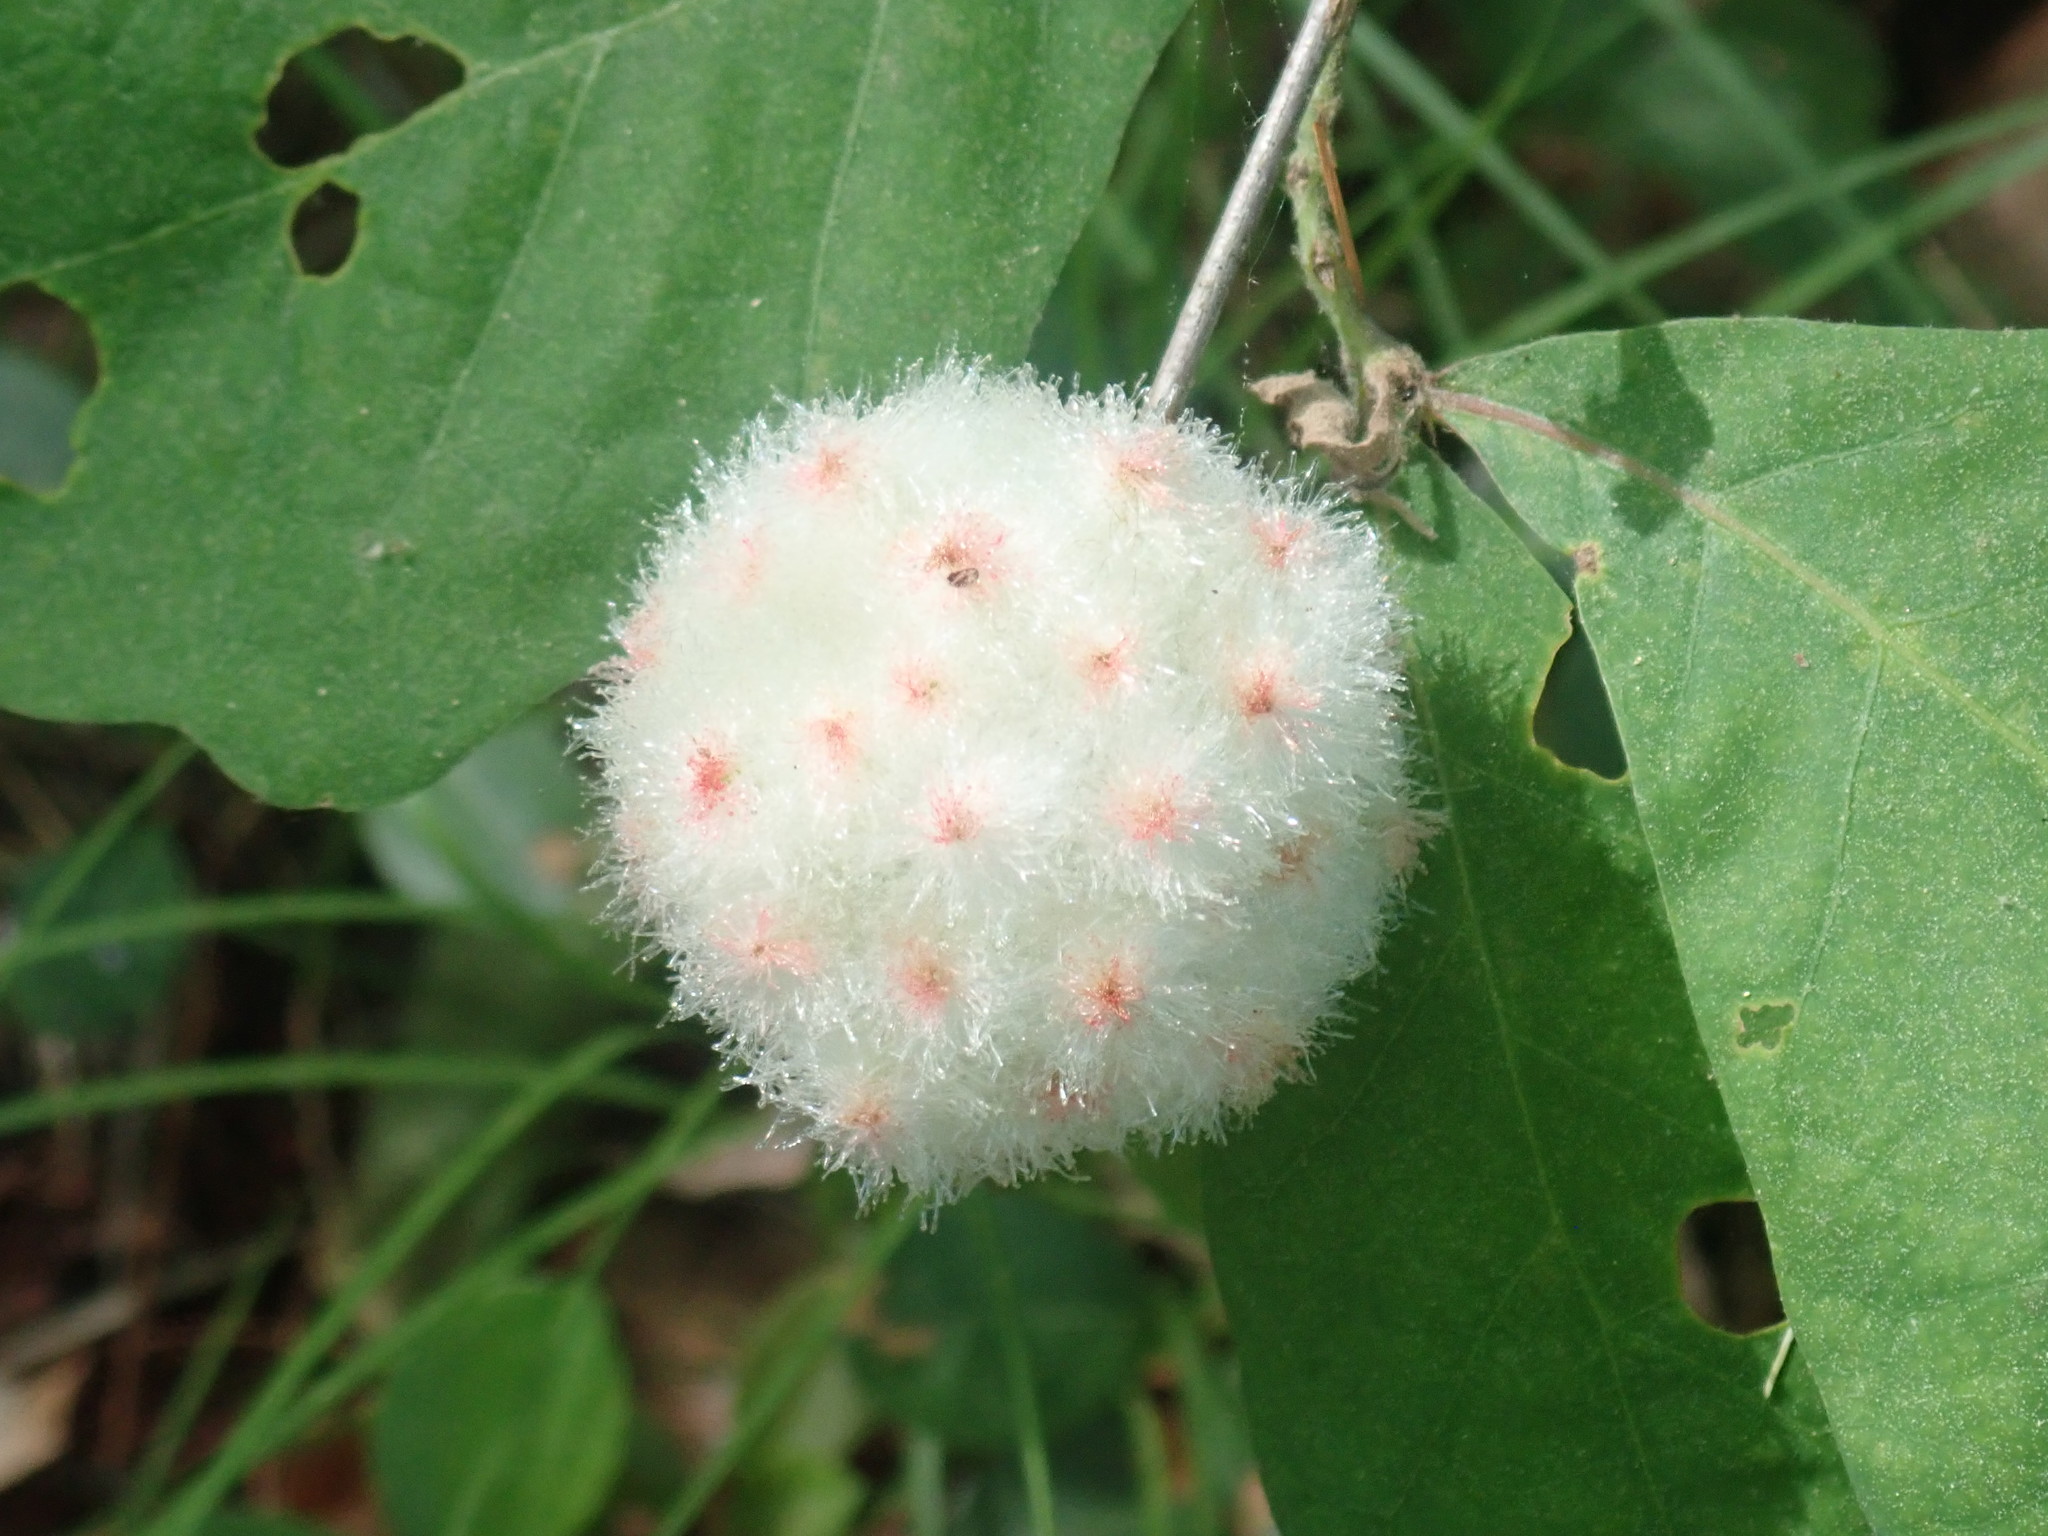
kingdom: Animalia
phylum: Arthropoda
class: Insecta
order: Hymenoptera
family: Cynipidae
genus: Callirhytis
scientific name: Callirhytis
